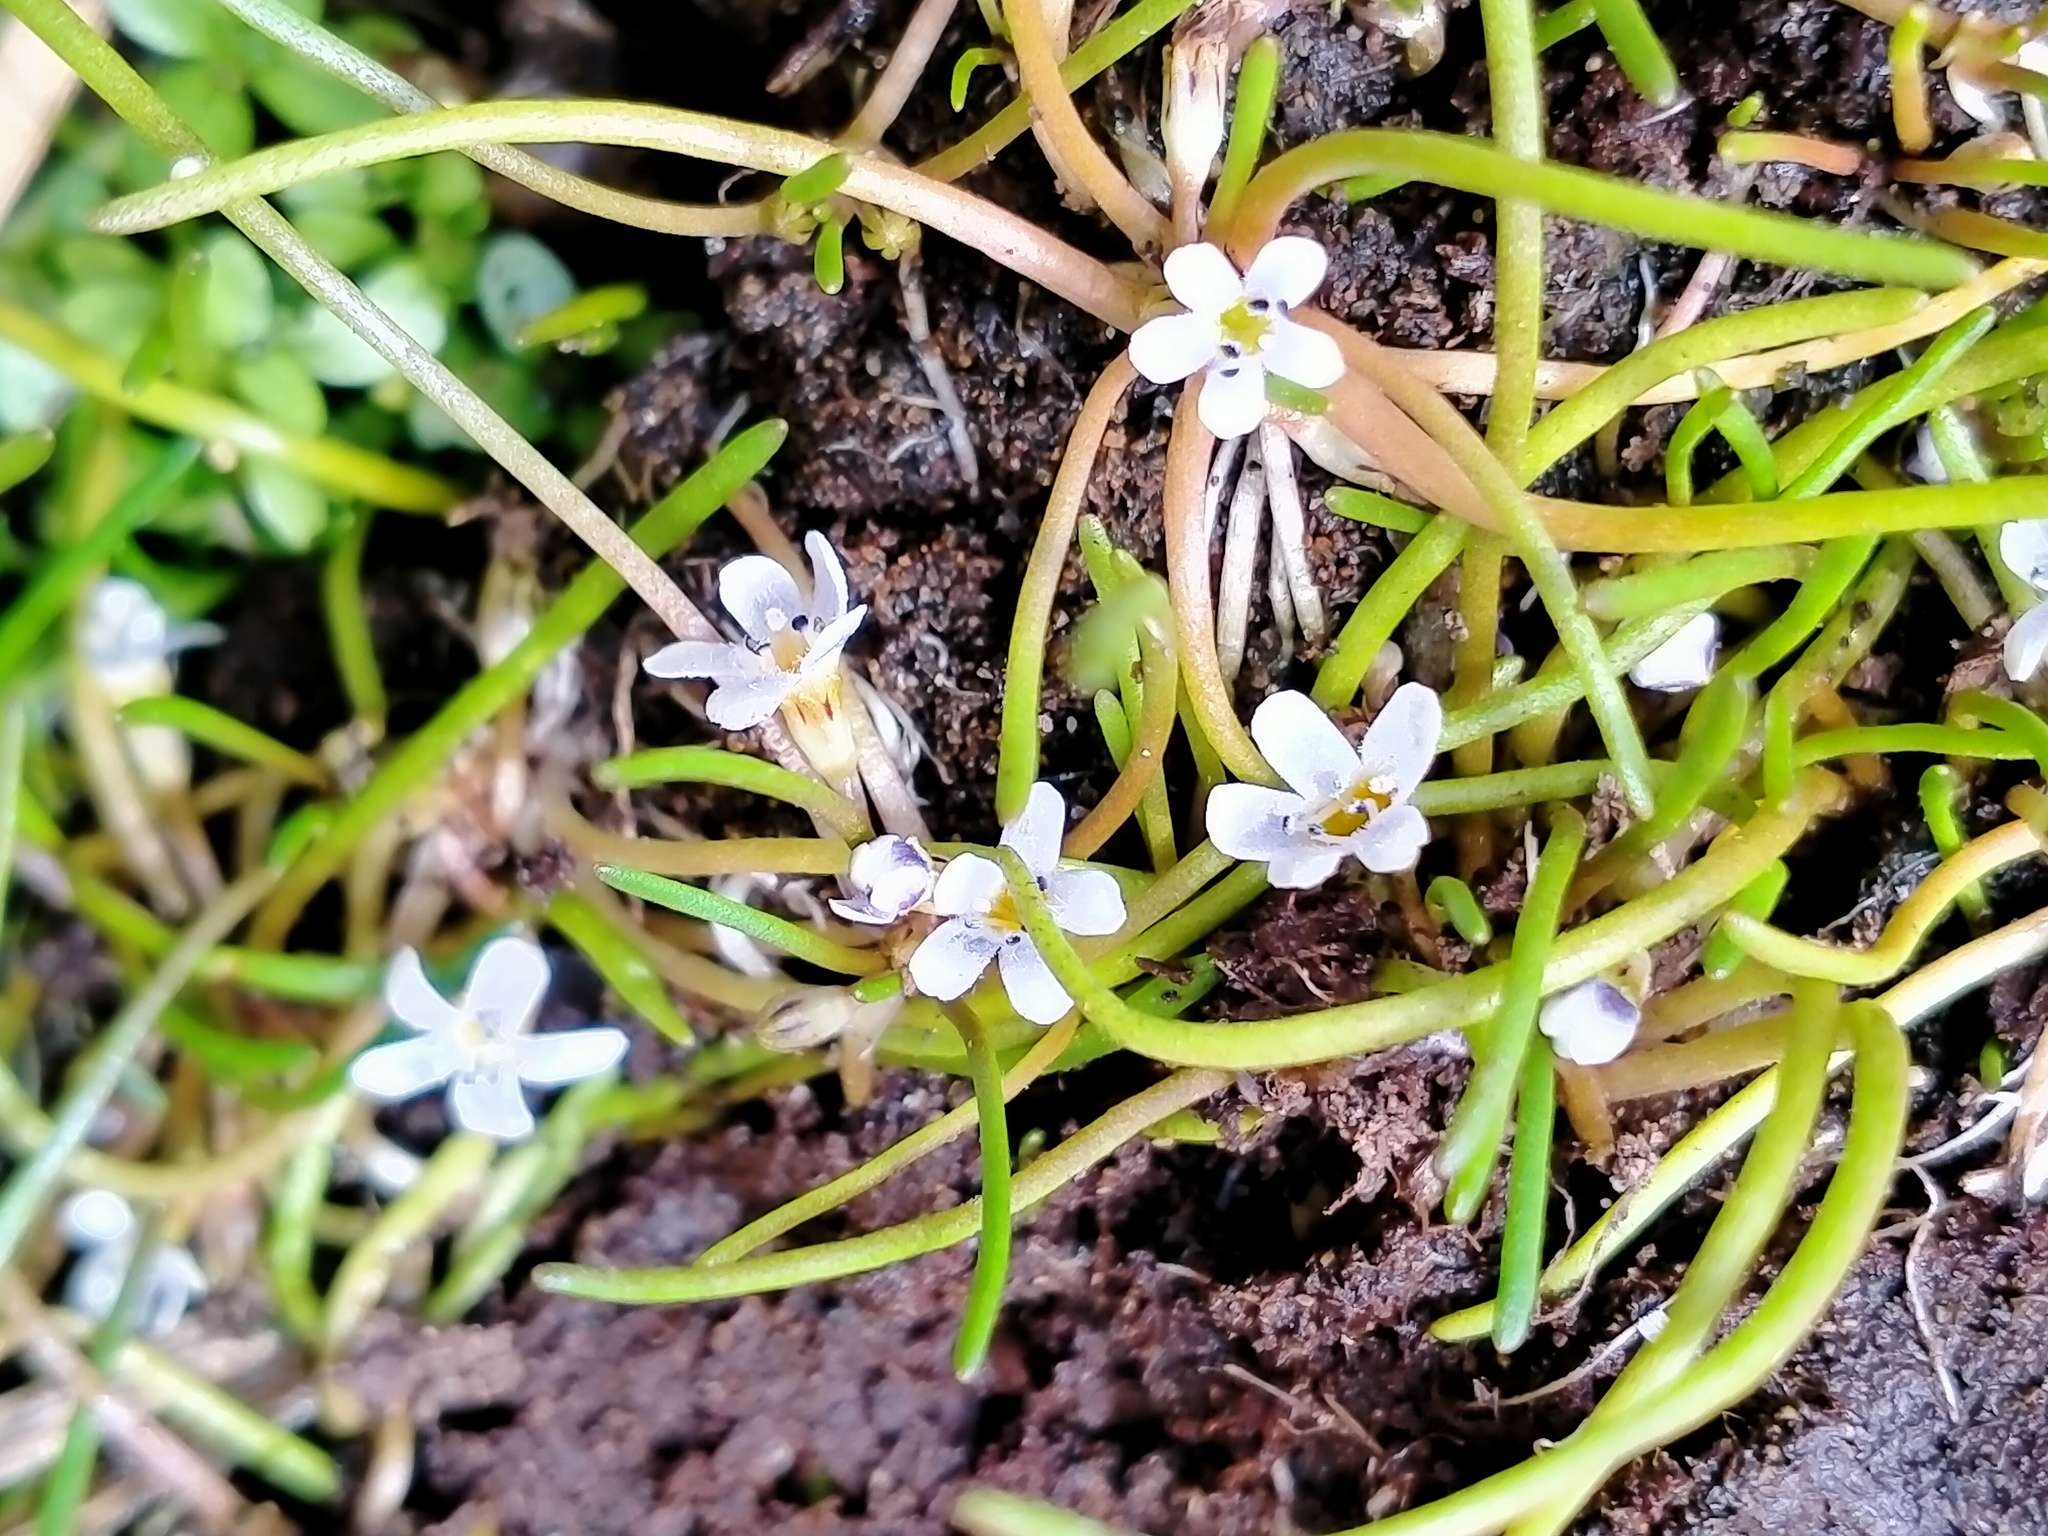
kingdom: Plantae
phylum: Tracheophyta
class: Magnoliopsida
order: Lamiales
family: Scrophulariaceae
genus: Limosella
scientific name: Limosella australis
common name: Welsh mudwort
